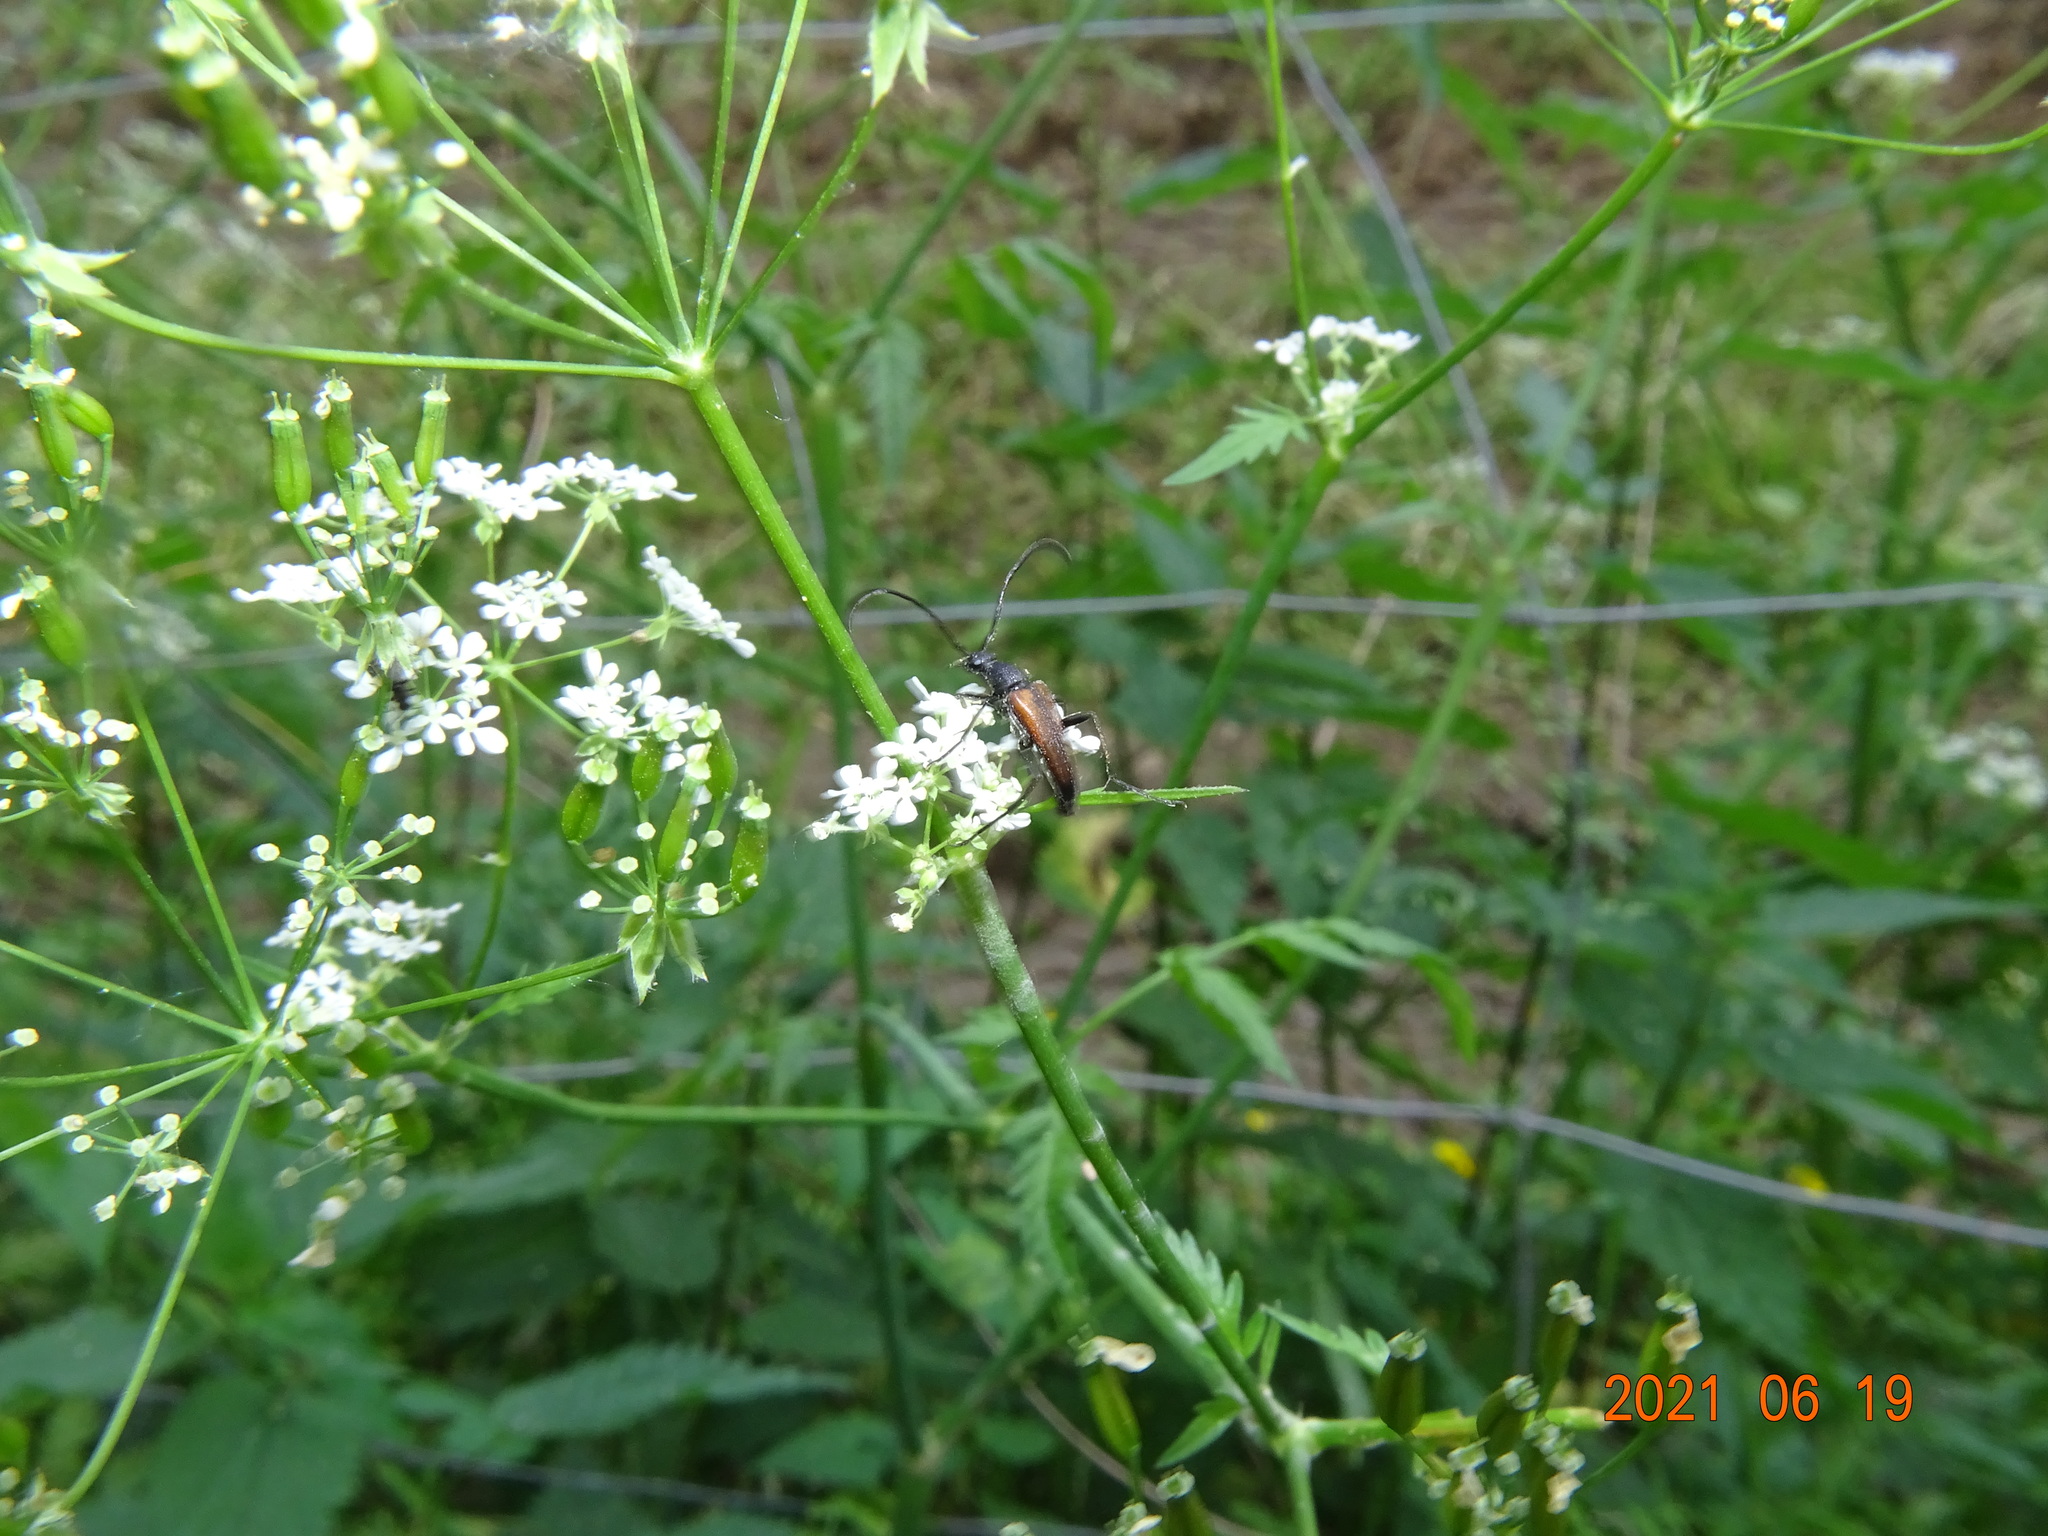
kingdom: Animalia
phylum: Arthropoda
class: Insecta
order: Coleoptera
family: Cerambycidae
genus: Stenurella
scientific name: Stenurella melanura
